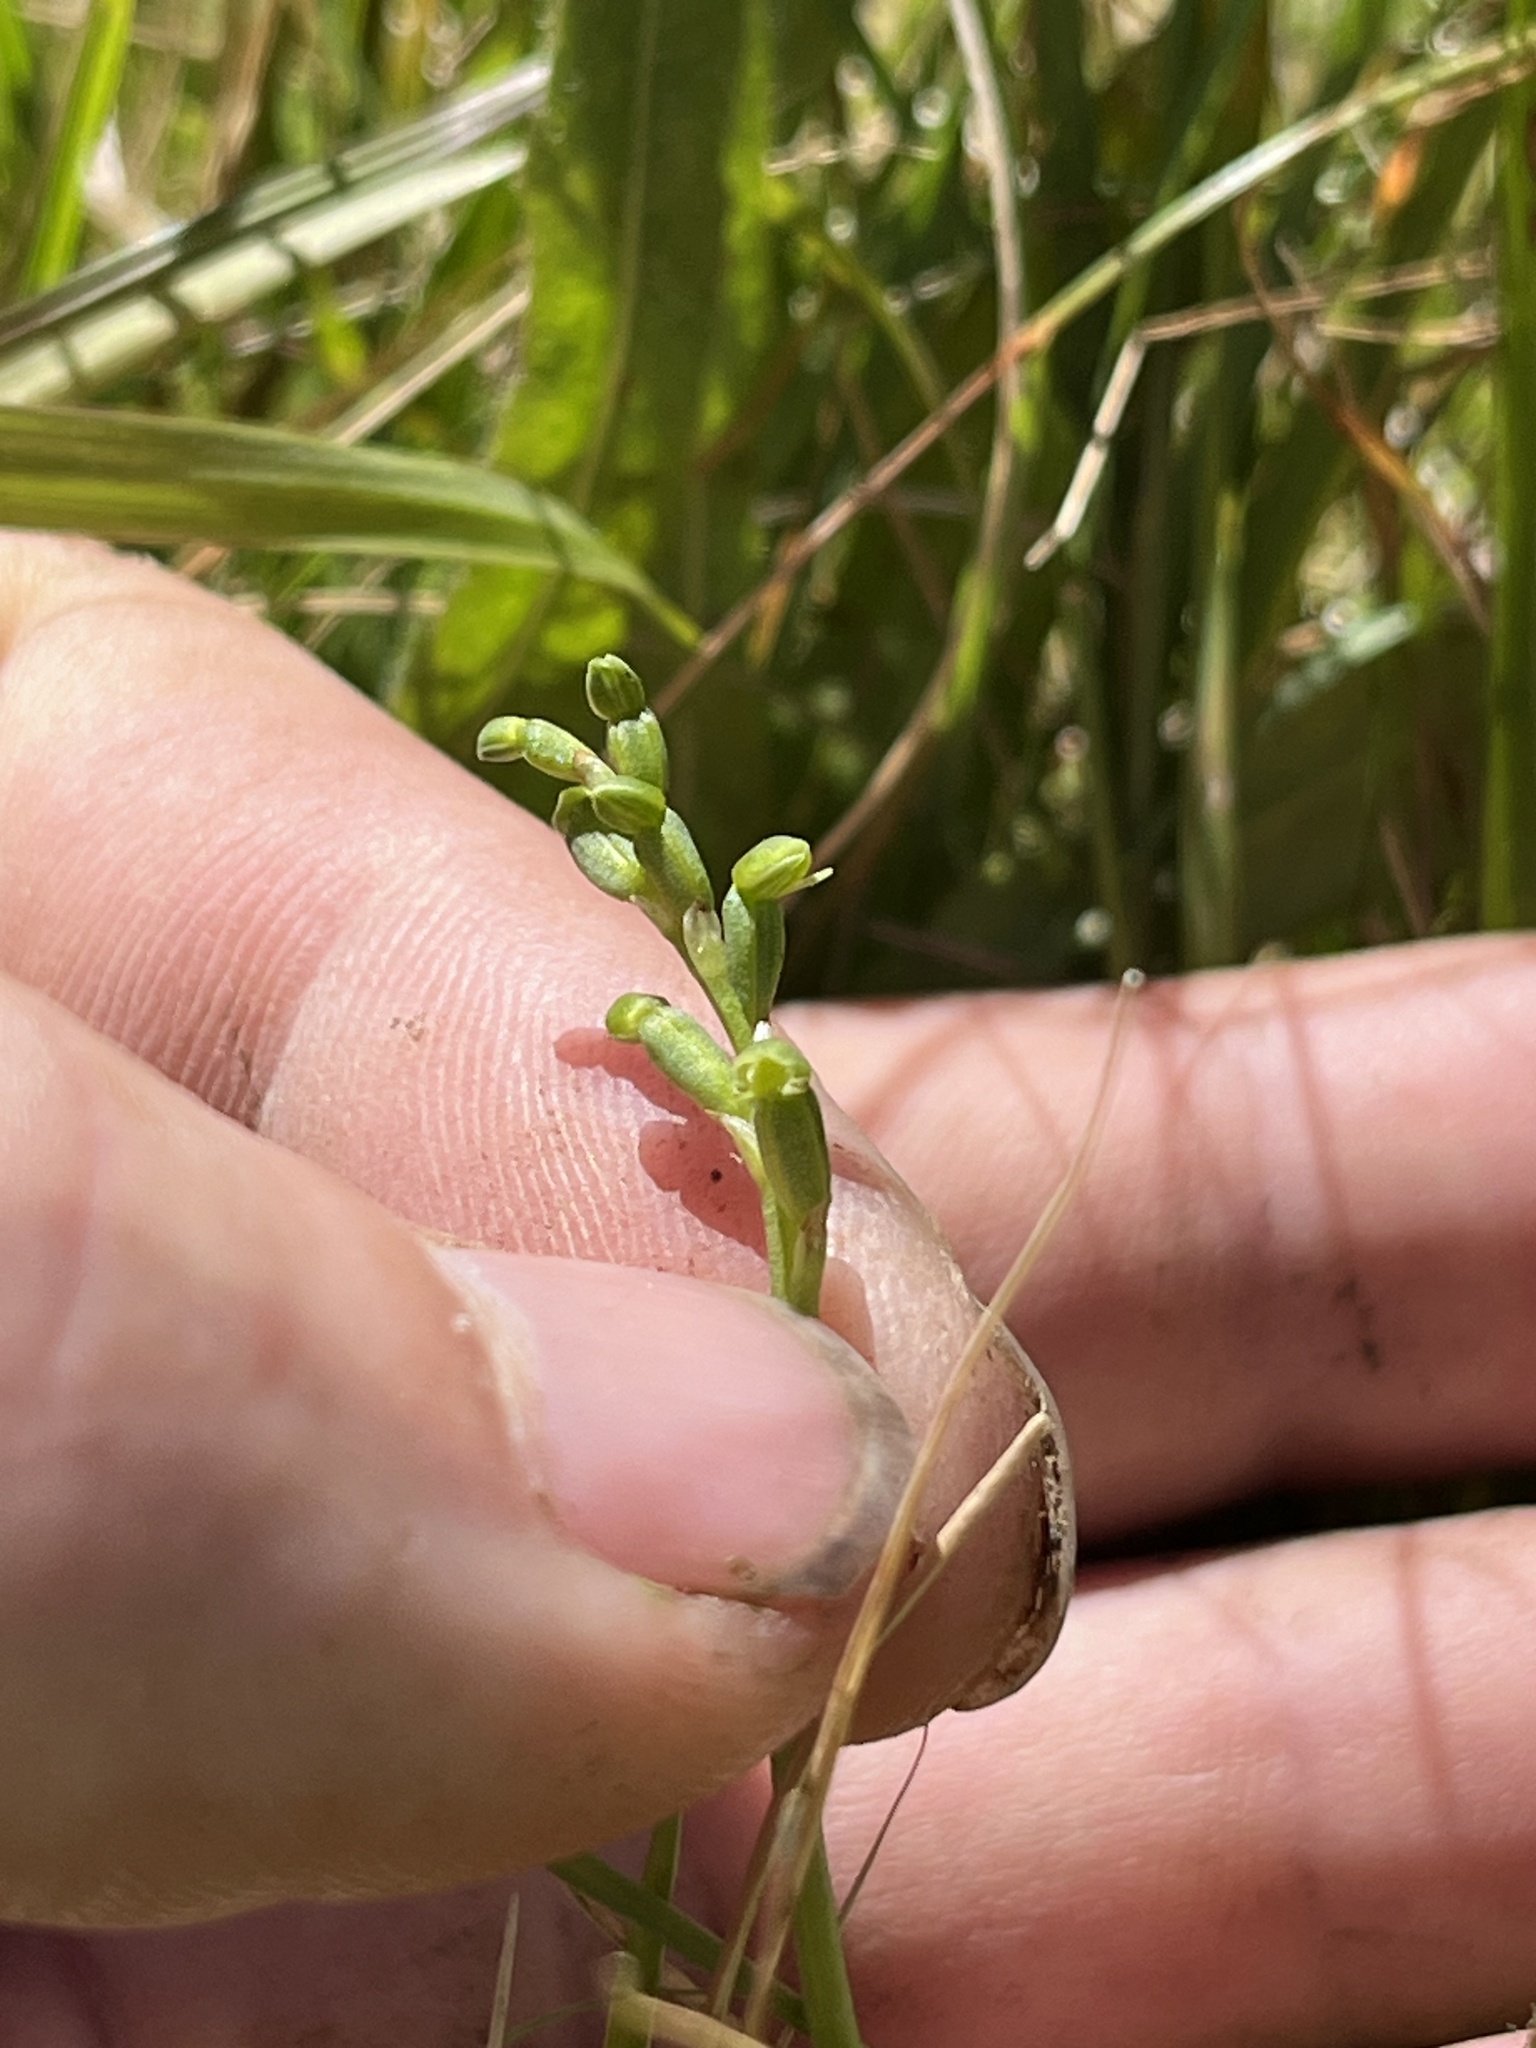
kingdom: Plantae
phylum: Tracheophyta
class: Liliopsida
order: Asparagales
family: Orchidaceae
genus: Microtis
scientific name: Microtis oligantha
